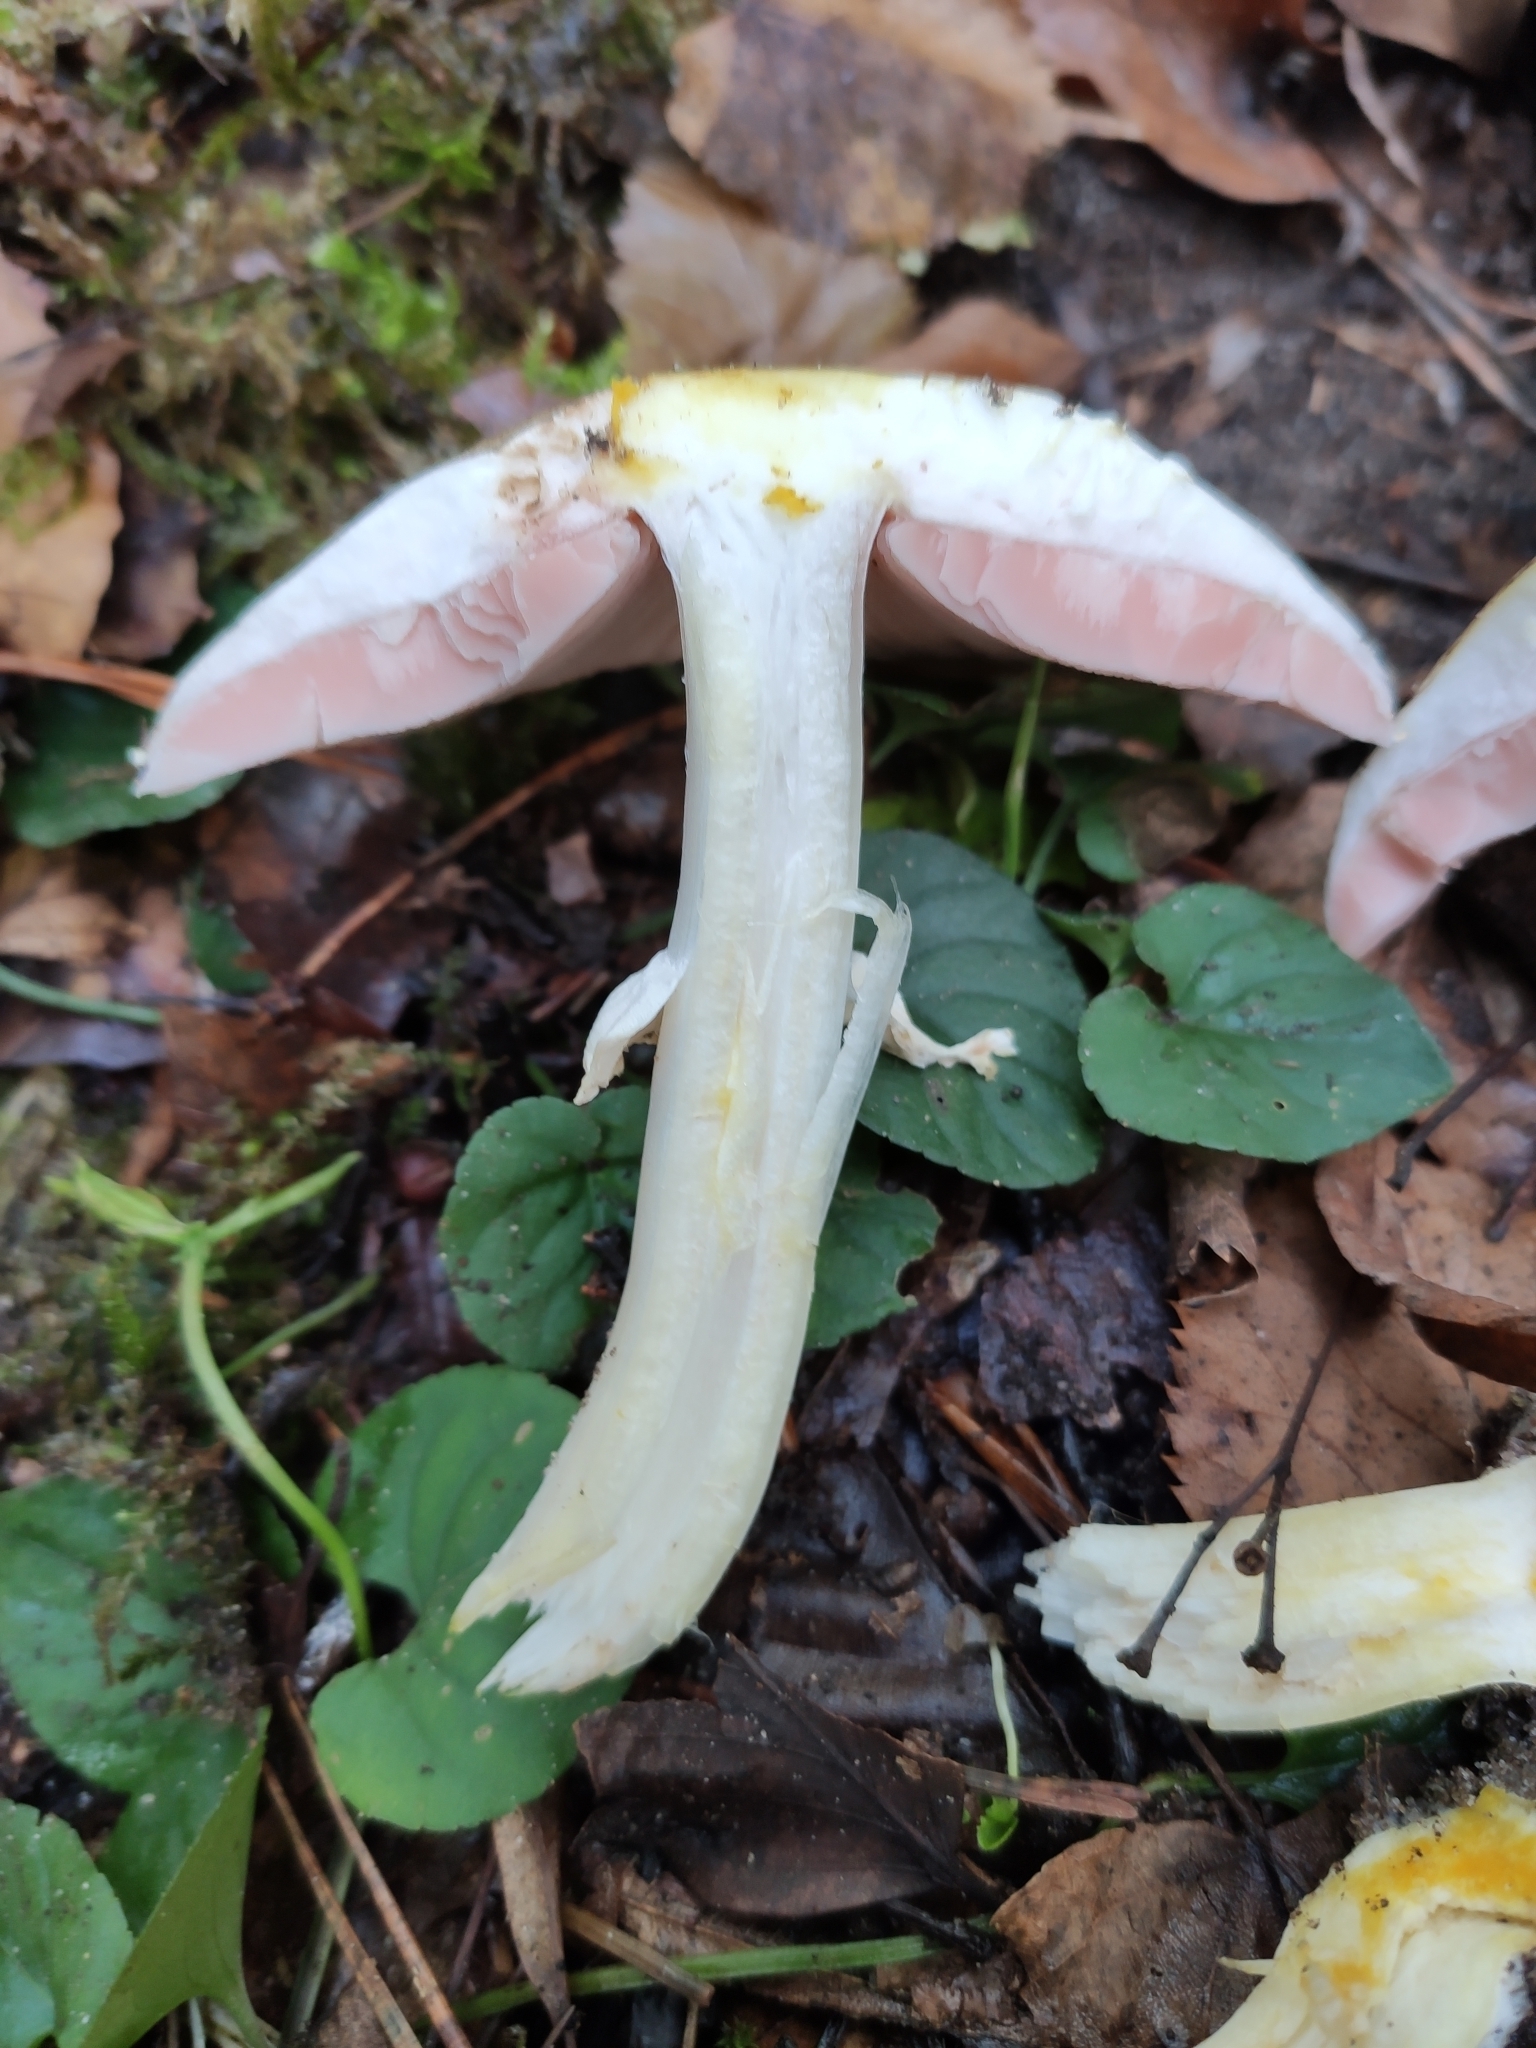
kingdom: Fungi
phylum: Basidiomycota
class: Agaricomycetes
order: Agaricales
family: Agaricaceae
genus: Agaricus
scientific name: Agaricus moelleri
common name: Inky mushroom
